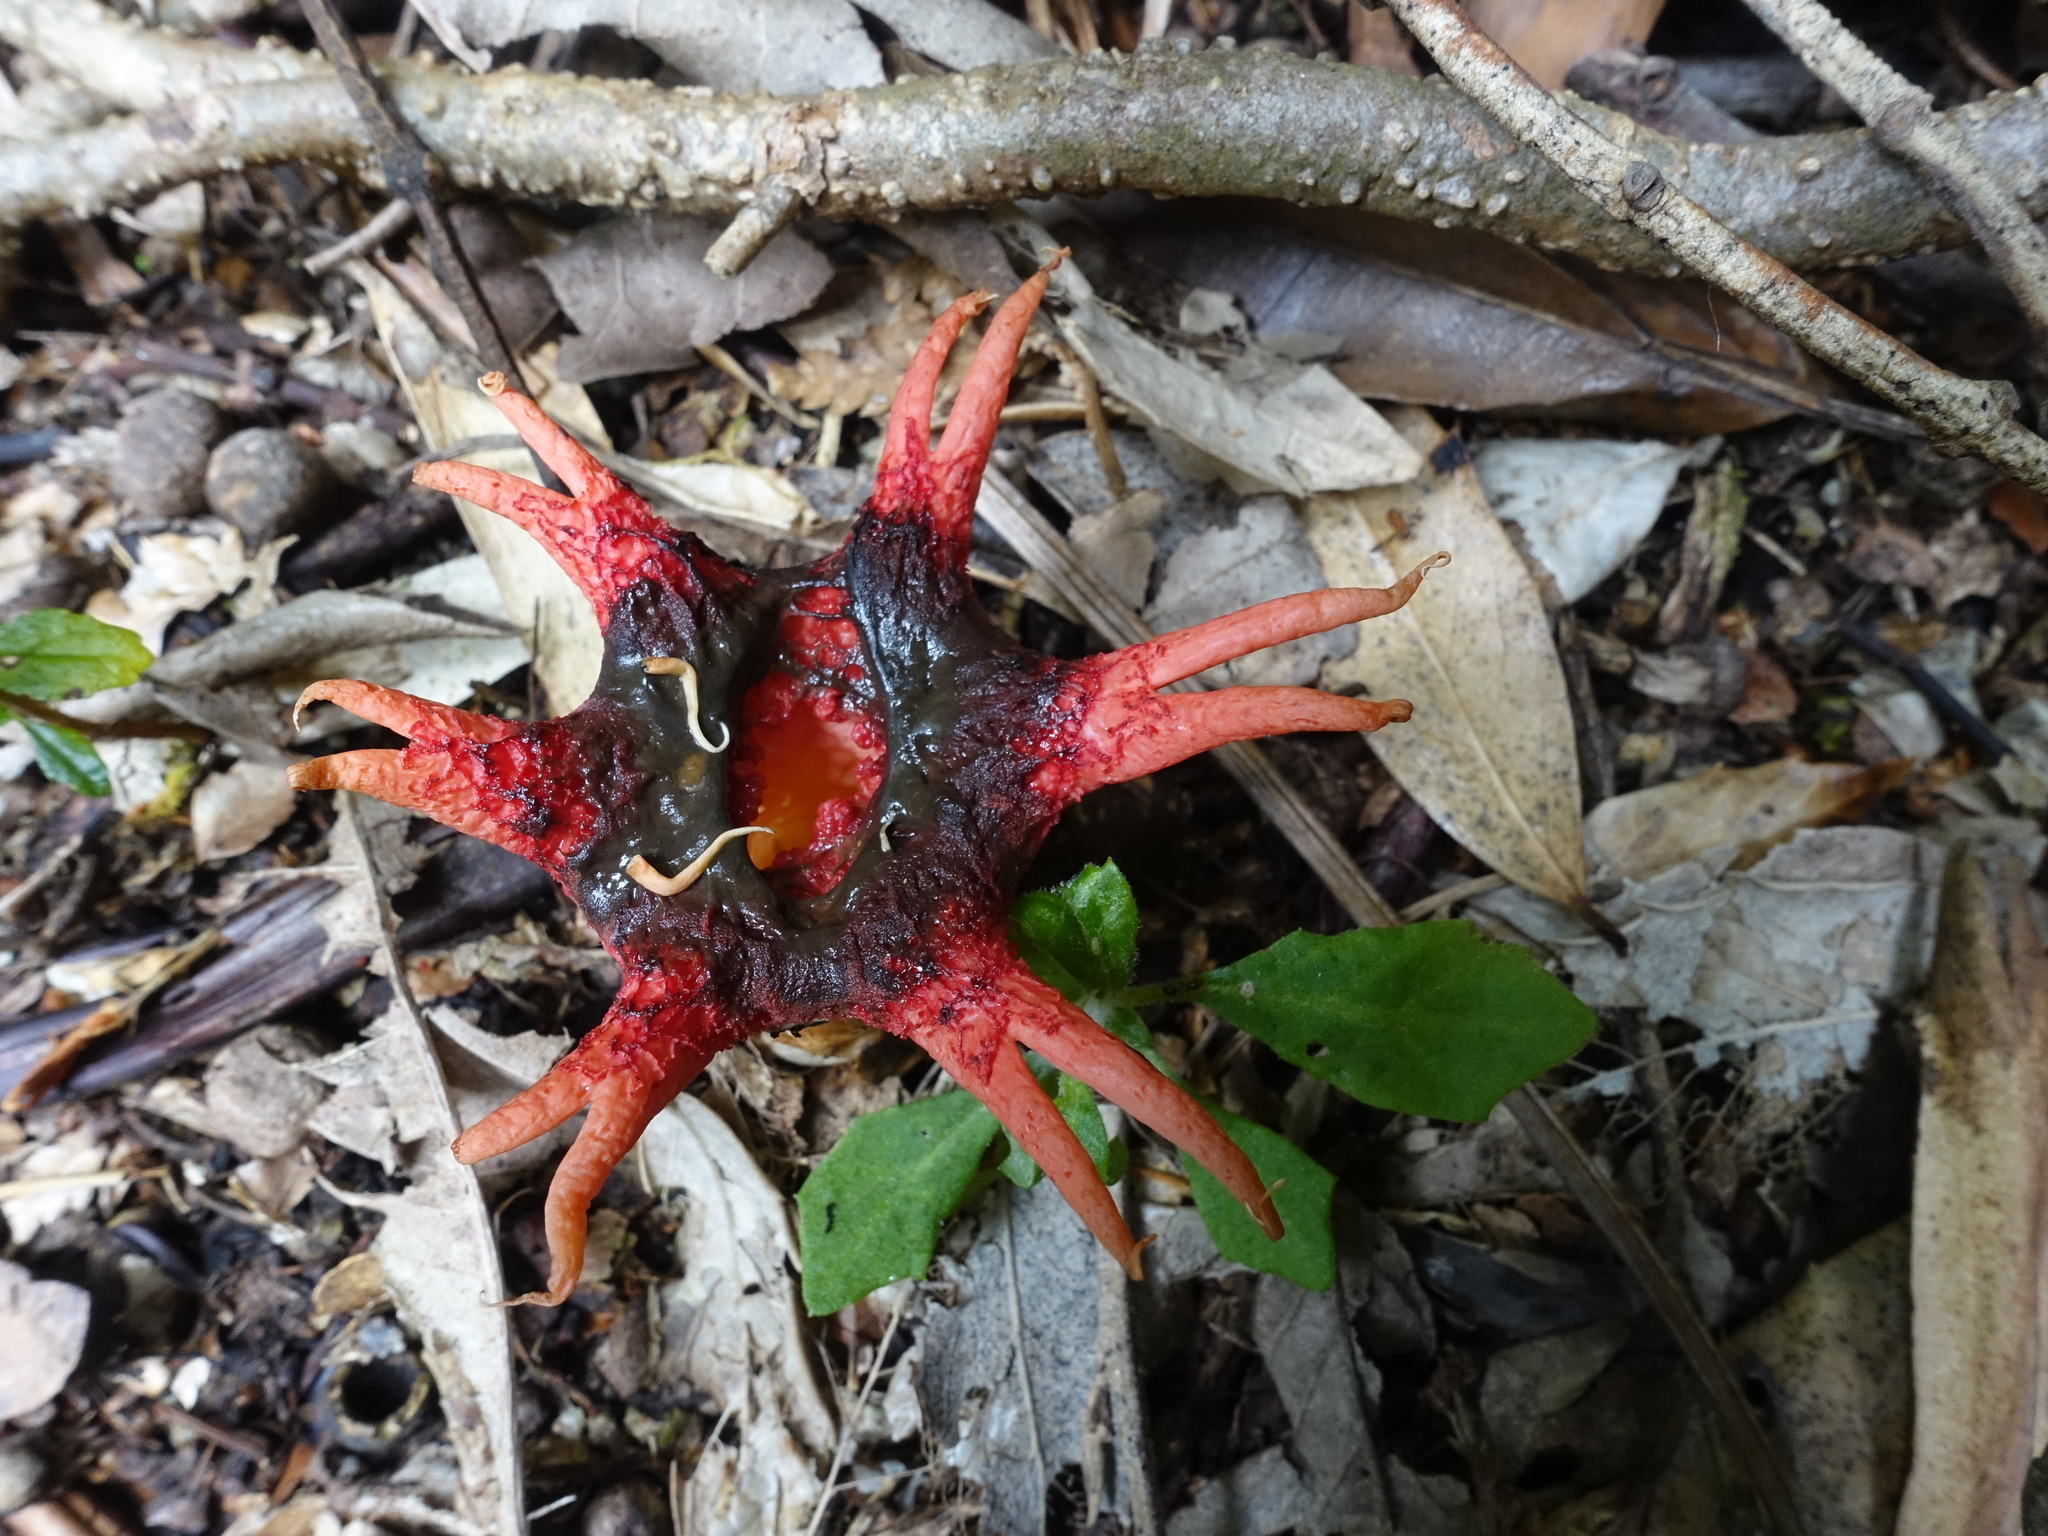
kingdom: Fungi
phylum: Basidiomycota
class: Agaricomycetes
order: Phallales
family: Phallaceae
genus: Aseroe
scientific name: Aseroe rubra
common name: Starfish fungus
